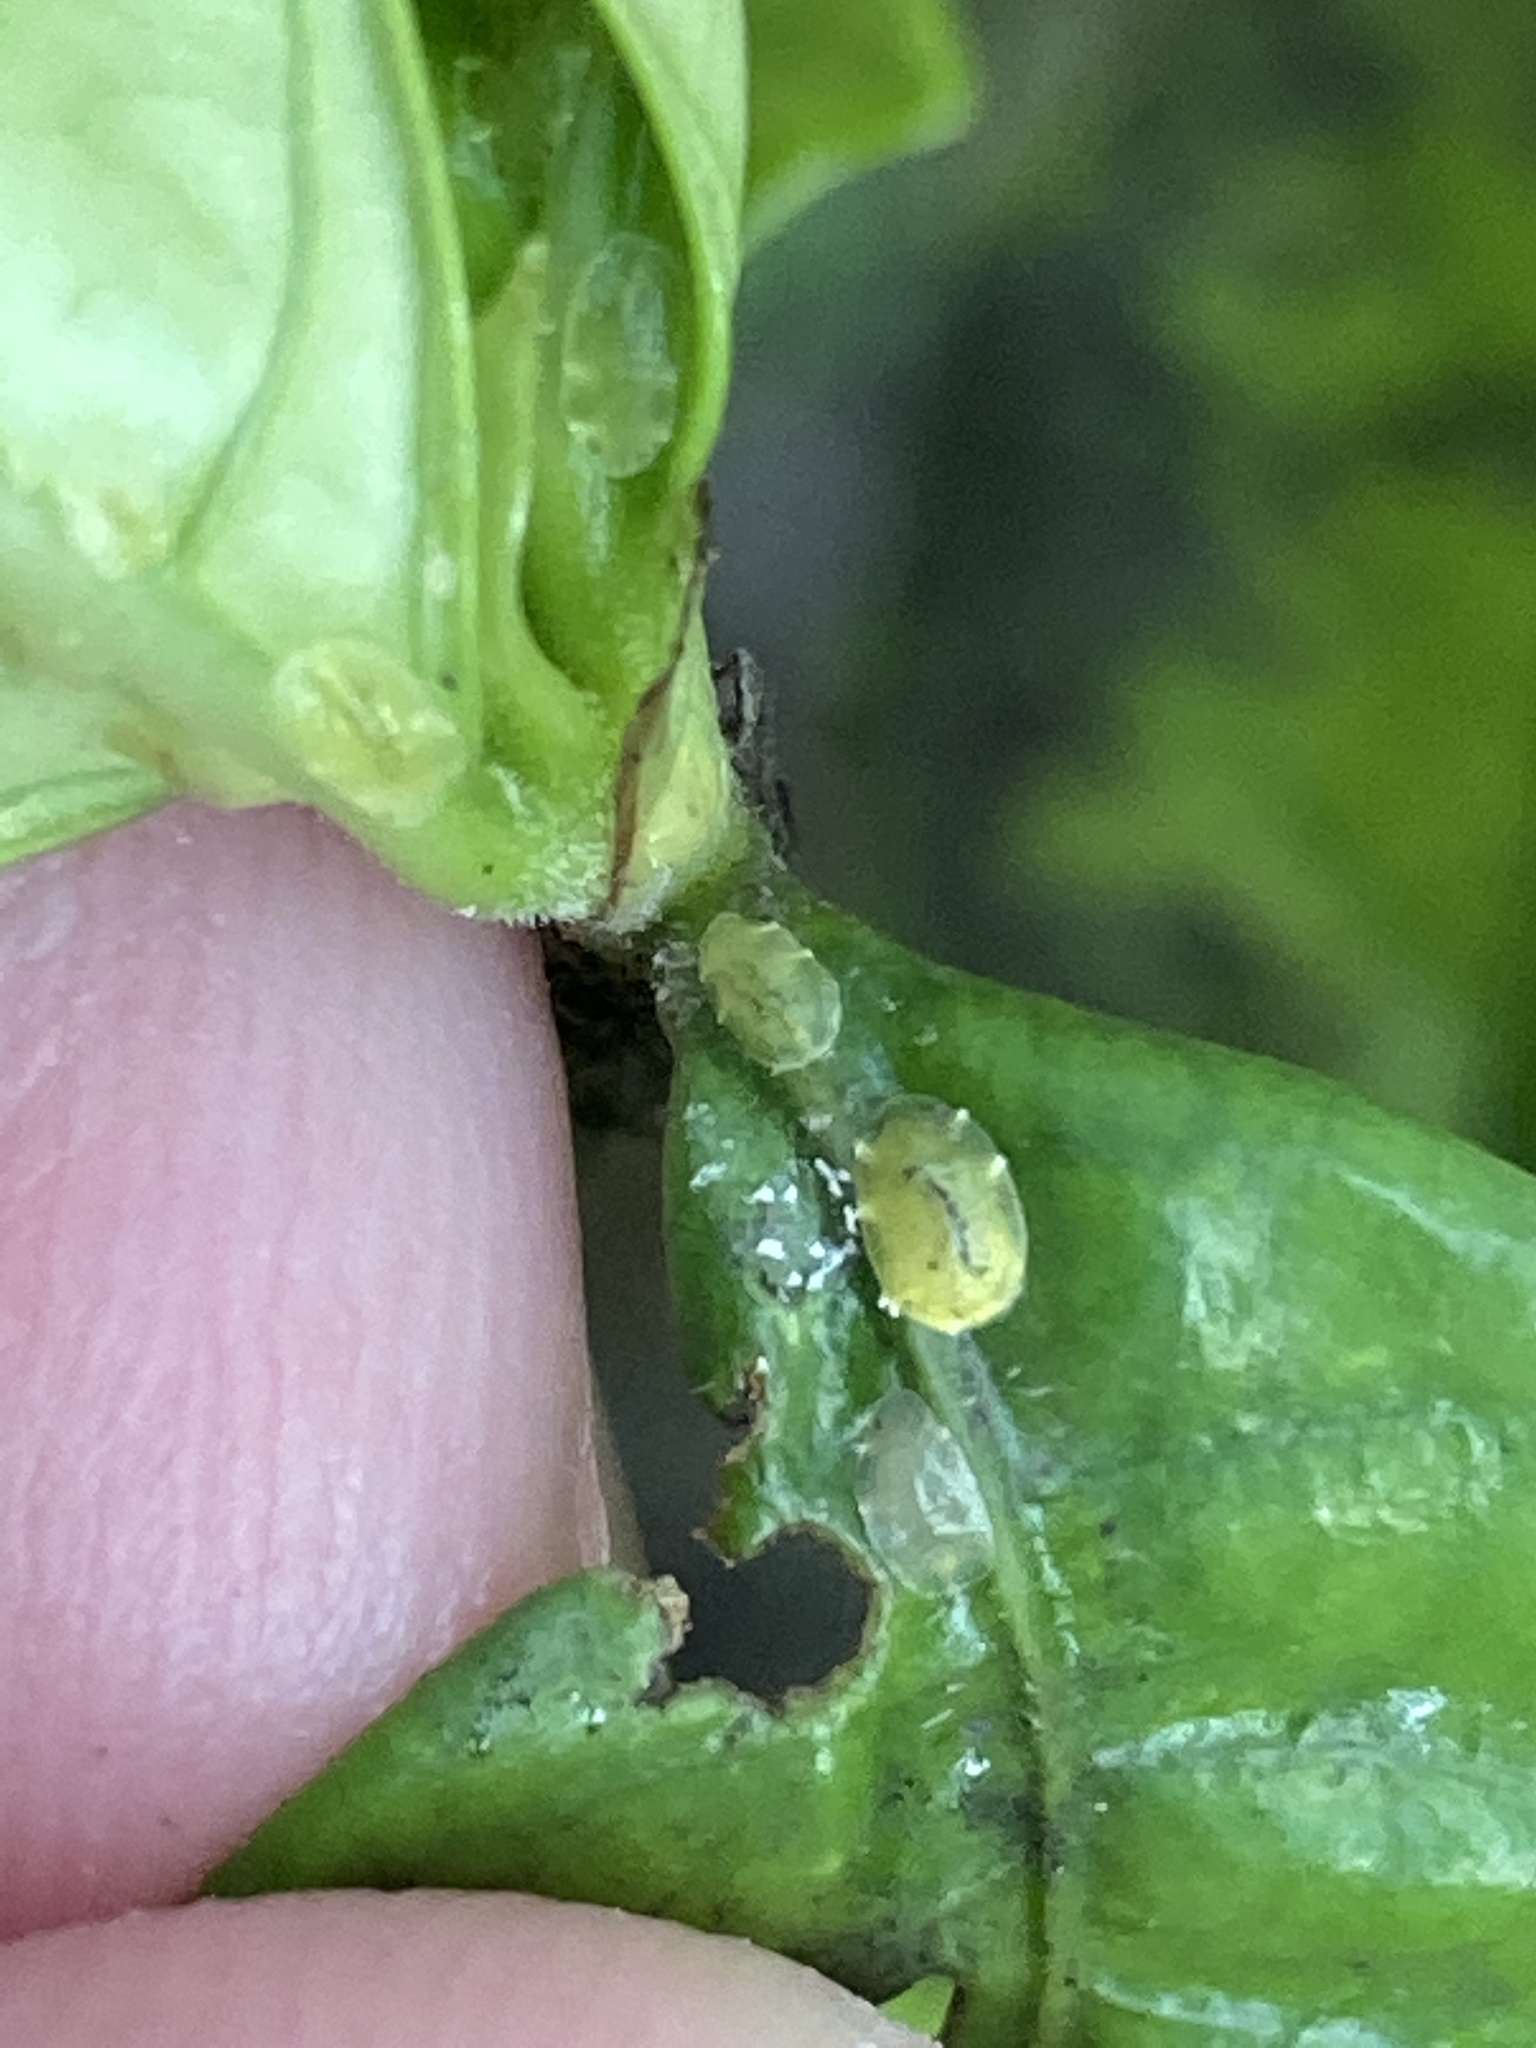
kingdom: Animalia
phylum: Arthropoda
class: Insecta
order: Hemiptera
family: Coccidae
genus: Coccus
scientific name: Coccus viridis
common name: Green scale
